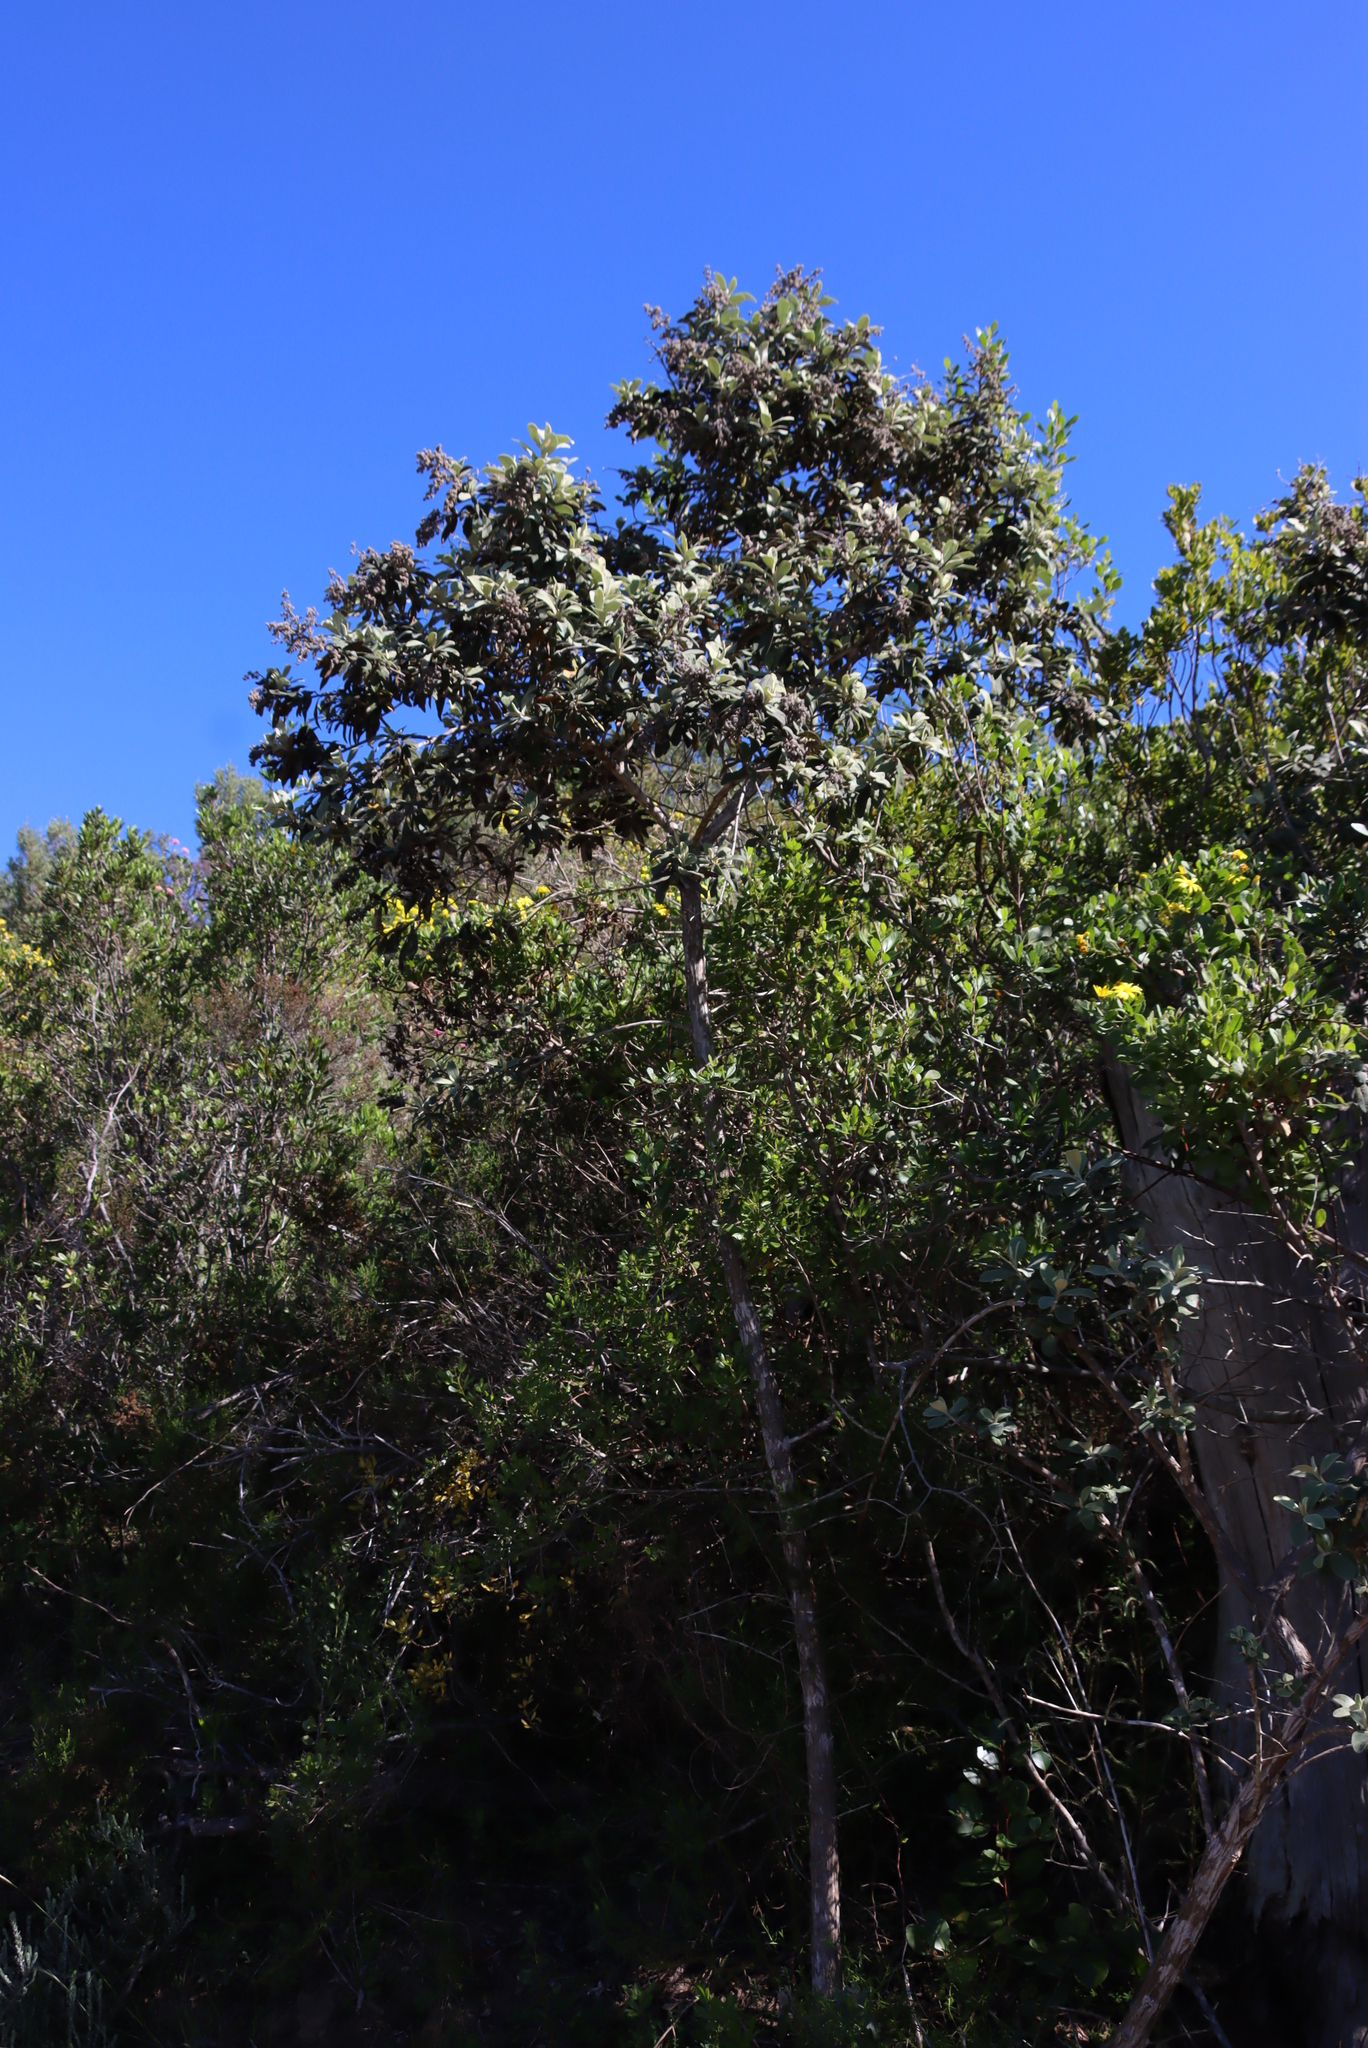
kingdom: Plantae
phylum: Tracheophyta
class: Magnoliopsida
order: Asterales
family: Asteraceae
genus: Tarchonanthus
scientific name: Tarchonanthus littoralis
